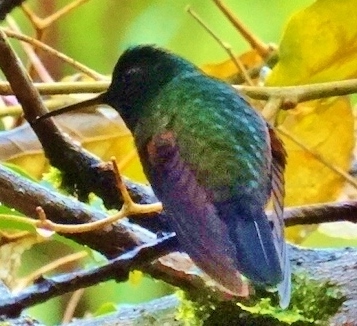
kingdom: Animalia
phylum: Chordata
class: Aves
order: Apodiformes
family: Trochilidae
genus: Eupherusa
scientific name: Eupherusa nigriventris
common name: Black-bellied hummingbird
